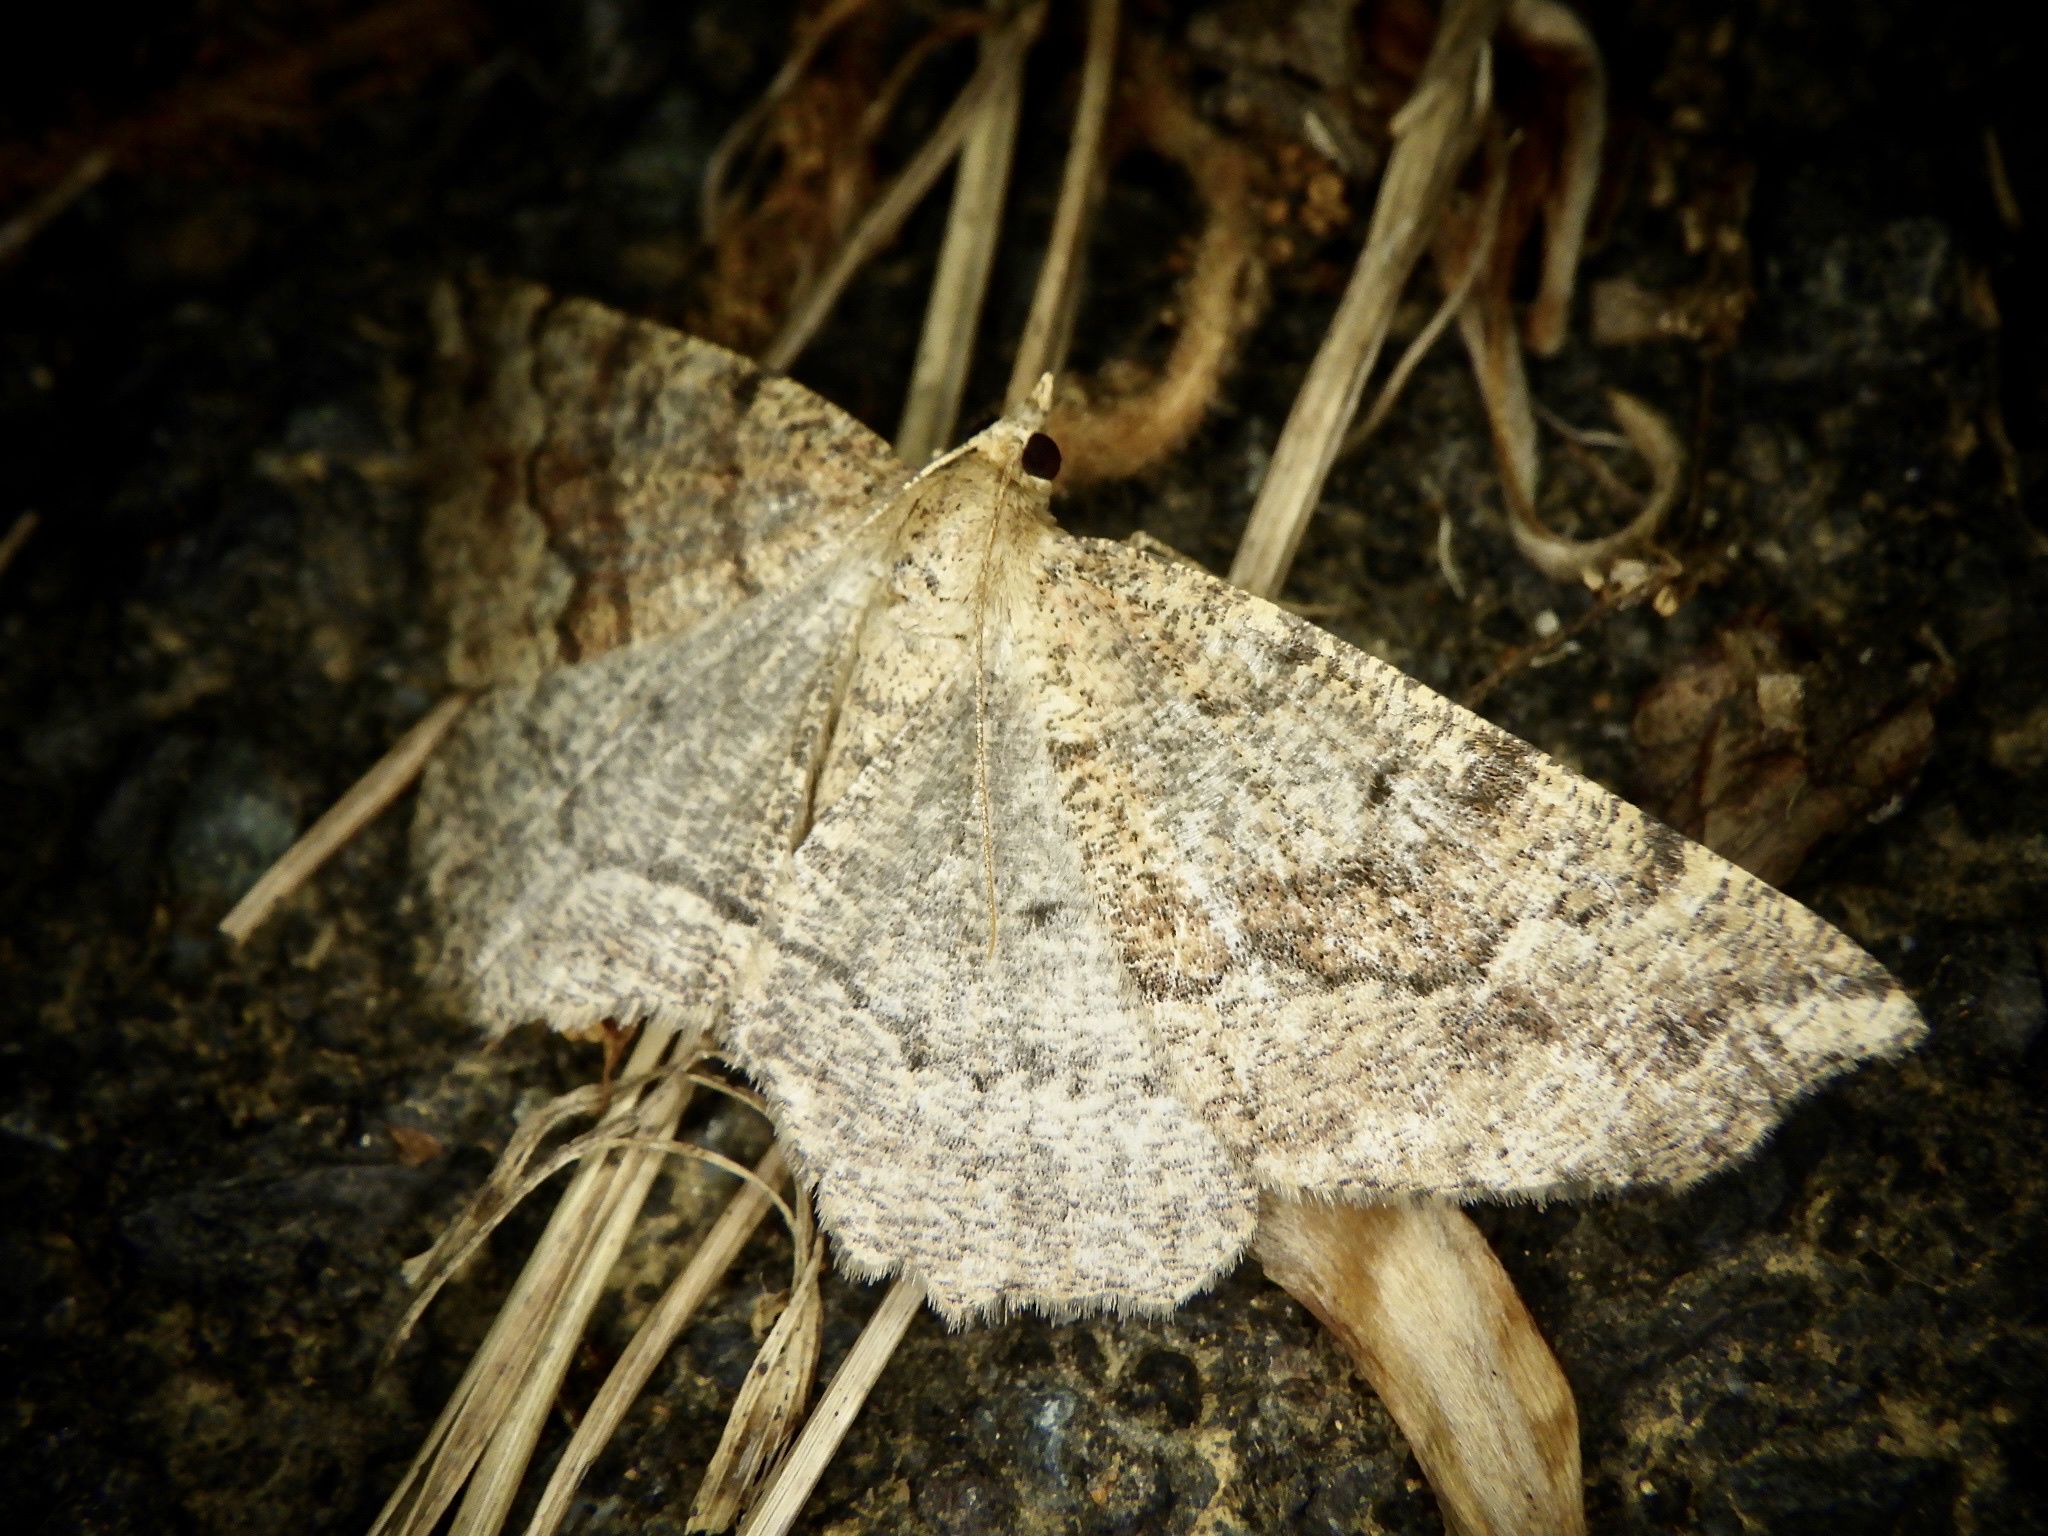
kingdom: Animalia
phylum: Arthropoda
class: Insecta
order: Lepidoptera
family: Geometridae
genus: Xerodes
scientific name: Xerodes rufescentaria
